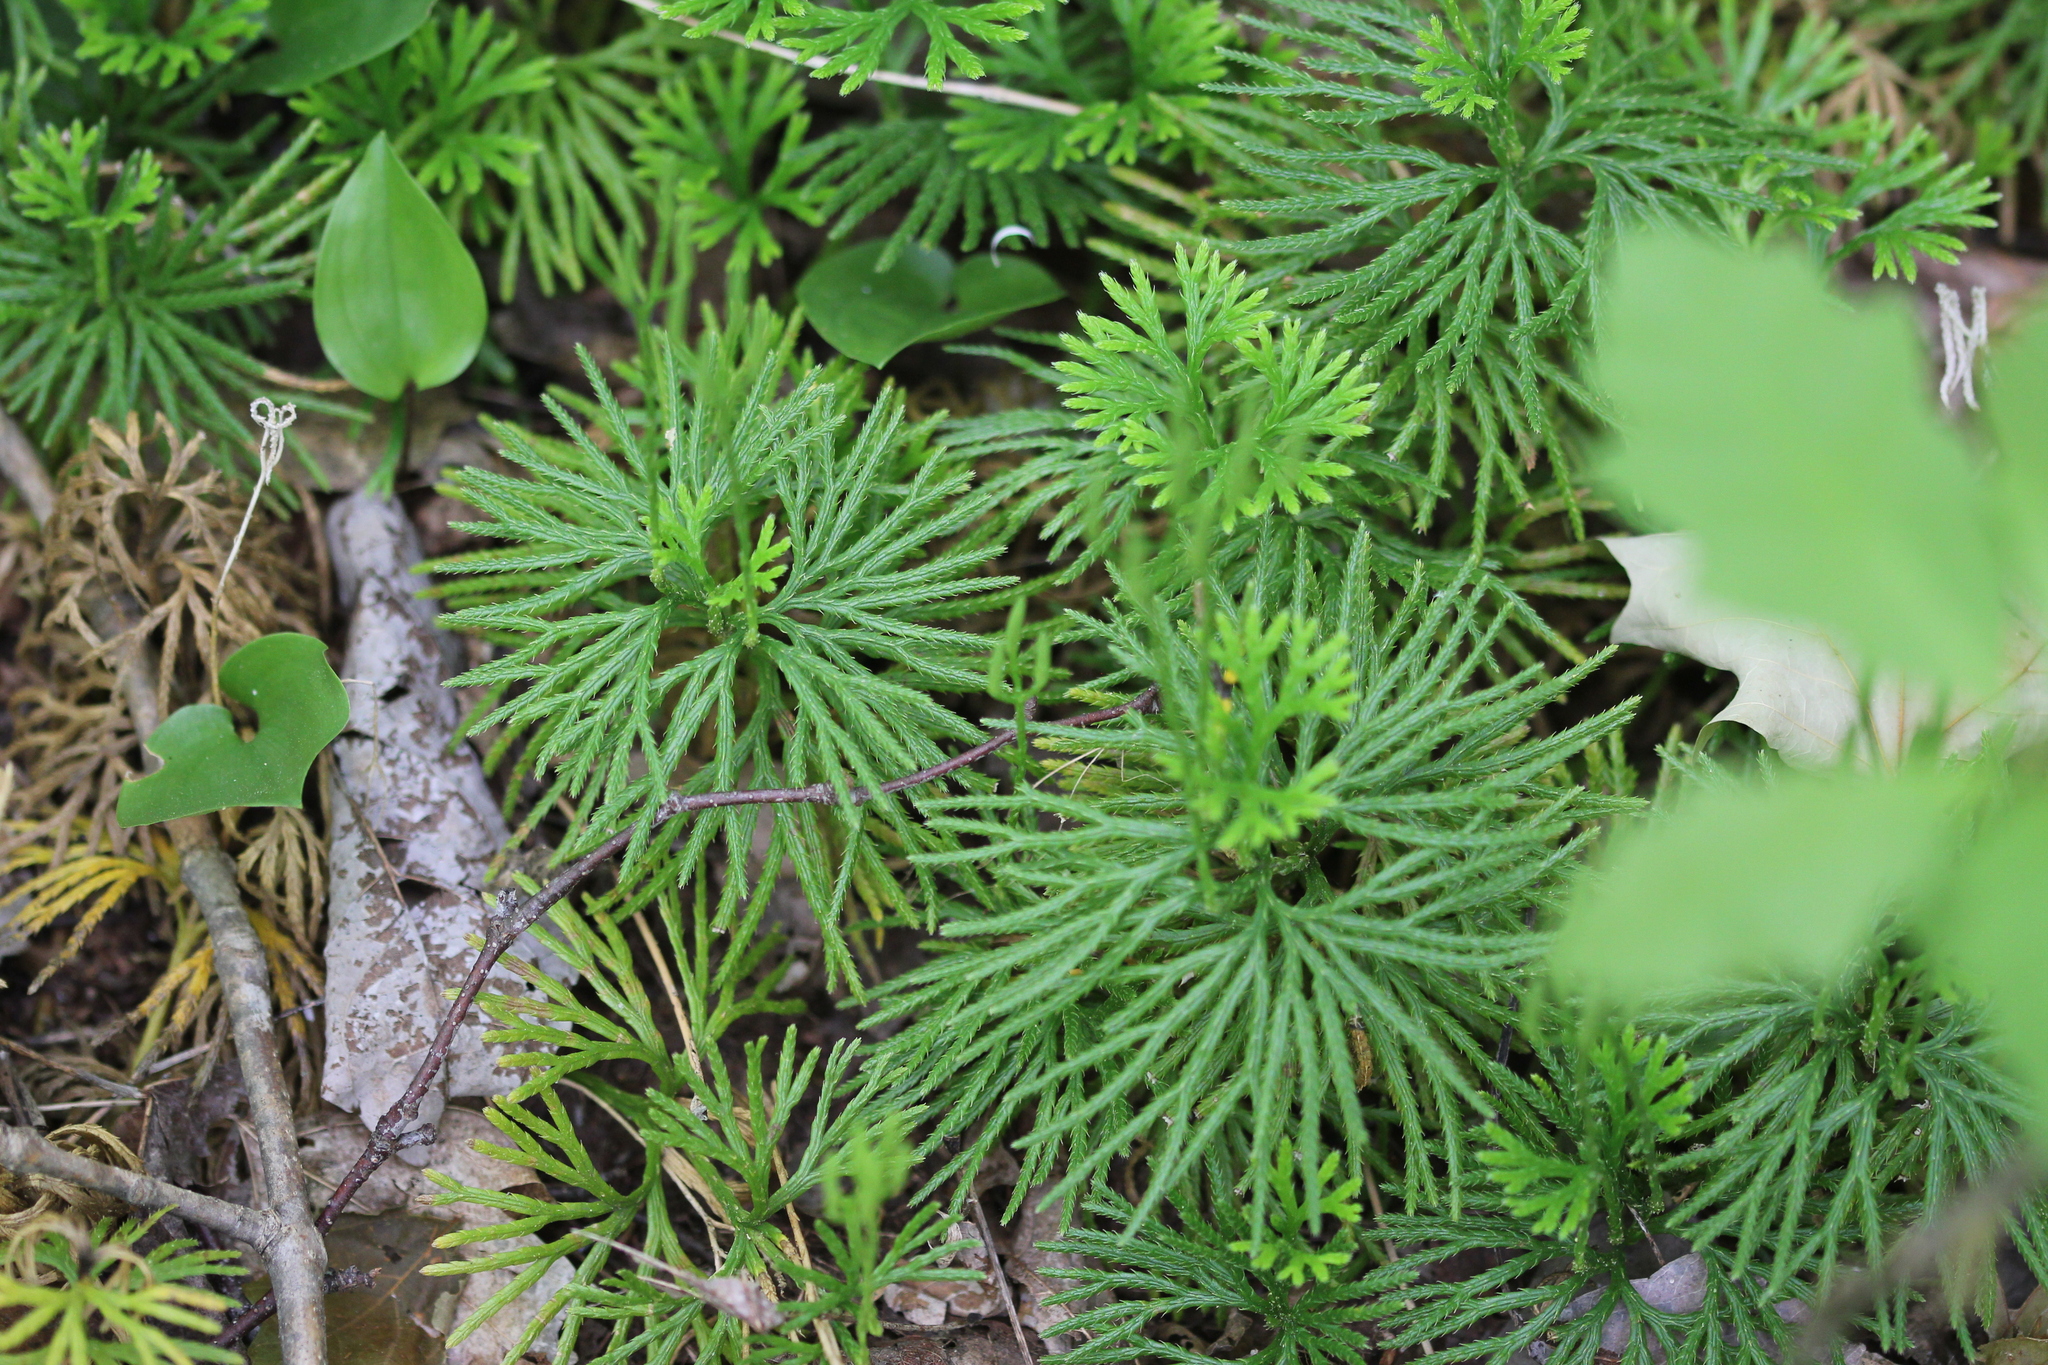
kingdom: Plantae
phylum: Tracheophyta
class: Lycopodiopsida
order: Lycopodiales
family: Lycopodiaceae
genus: Diphasiastrum
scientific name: Diphasiastrum digitatum
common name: Southern running-pine
